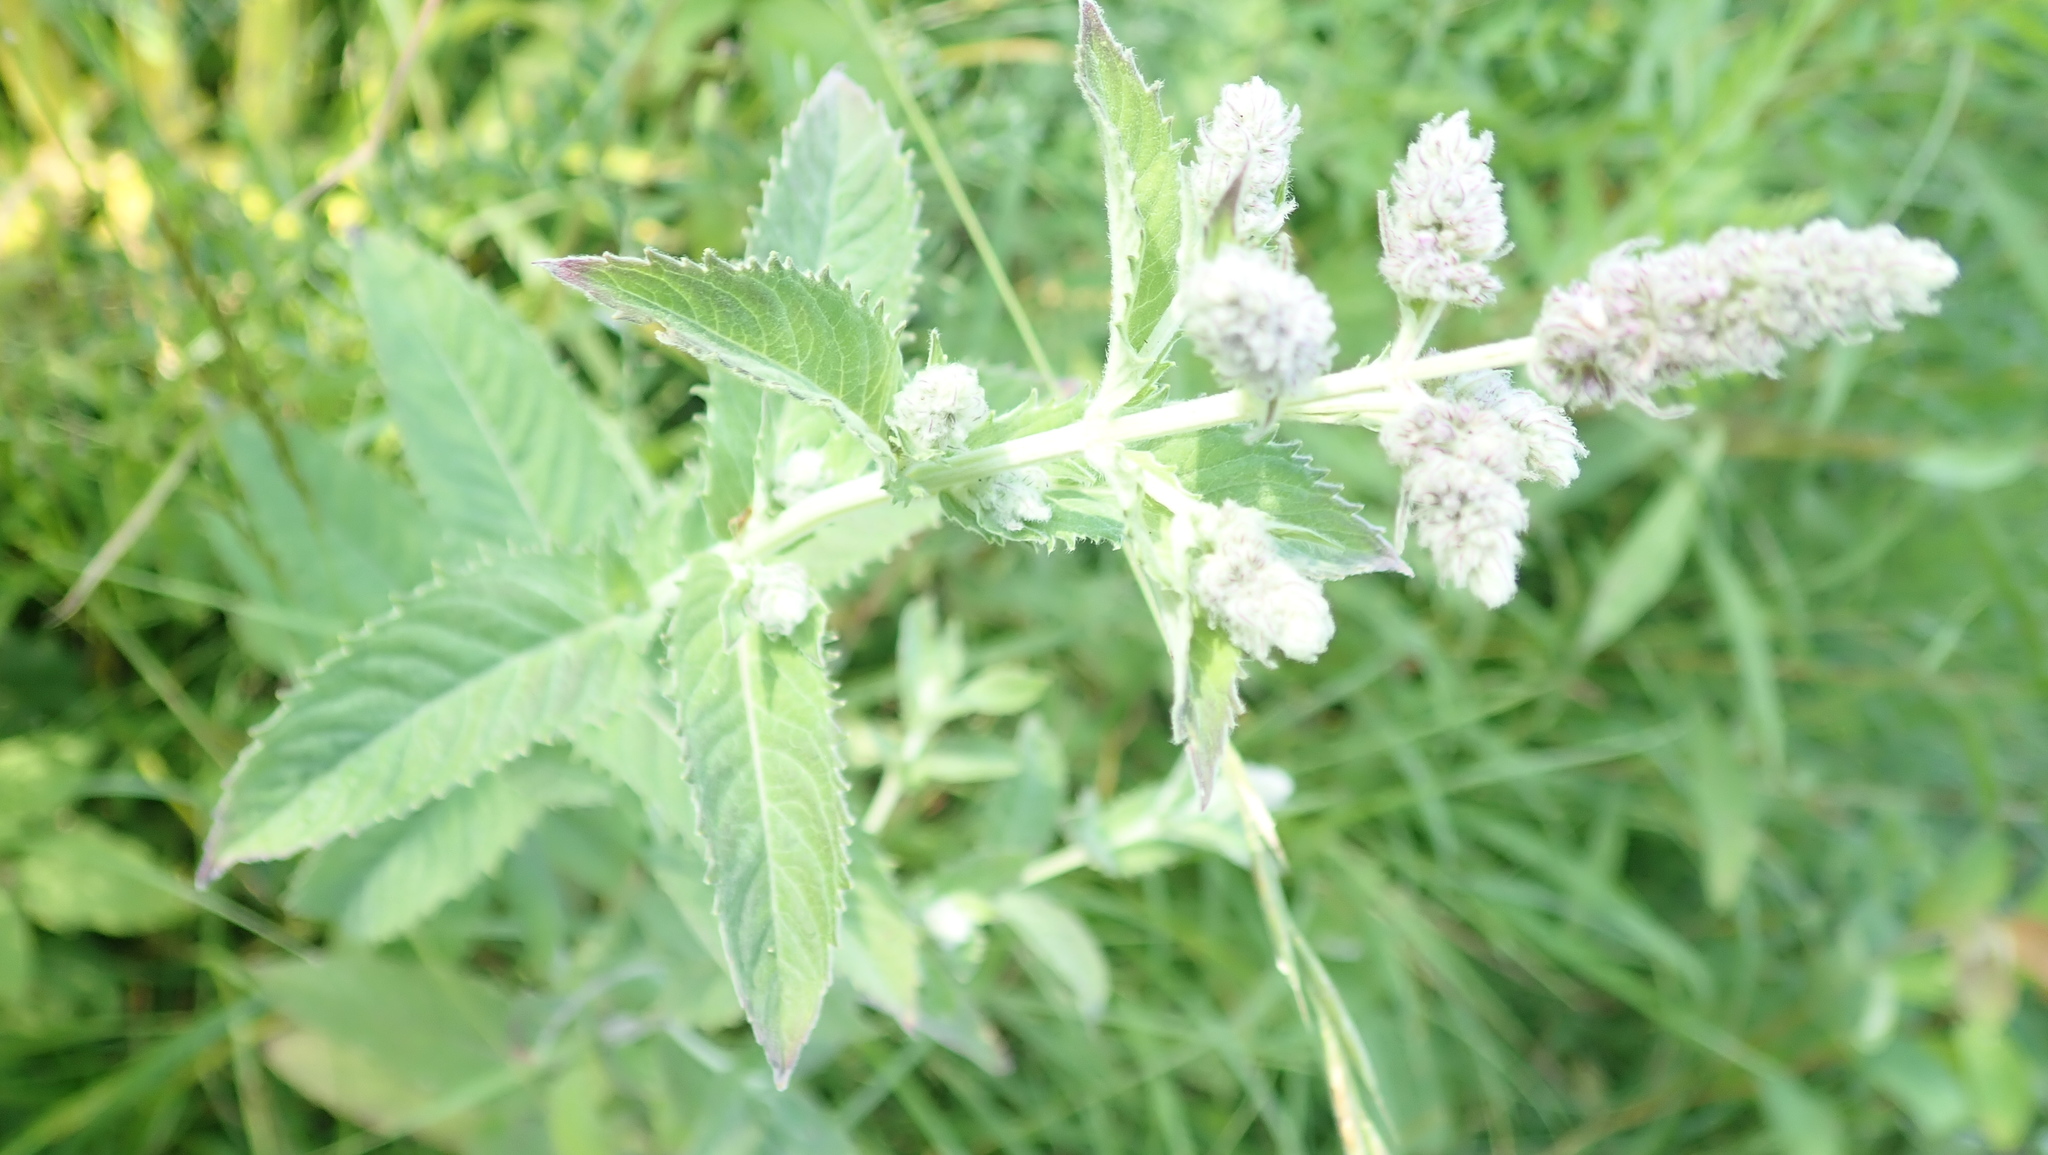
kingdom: Plantae
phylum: Tracheophyta
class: Magnoliopsida
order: Lamiales
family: Lamiaceae
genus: Mentha
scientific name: Mentha longifolia
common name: Horse mint
